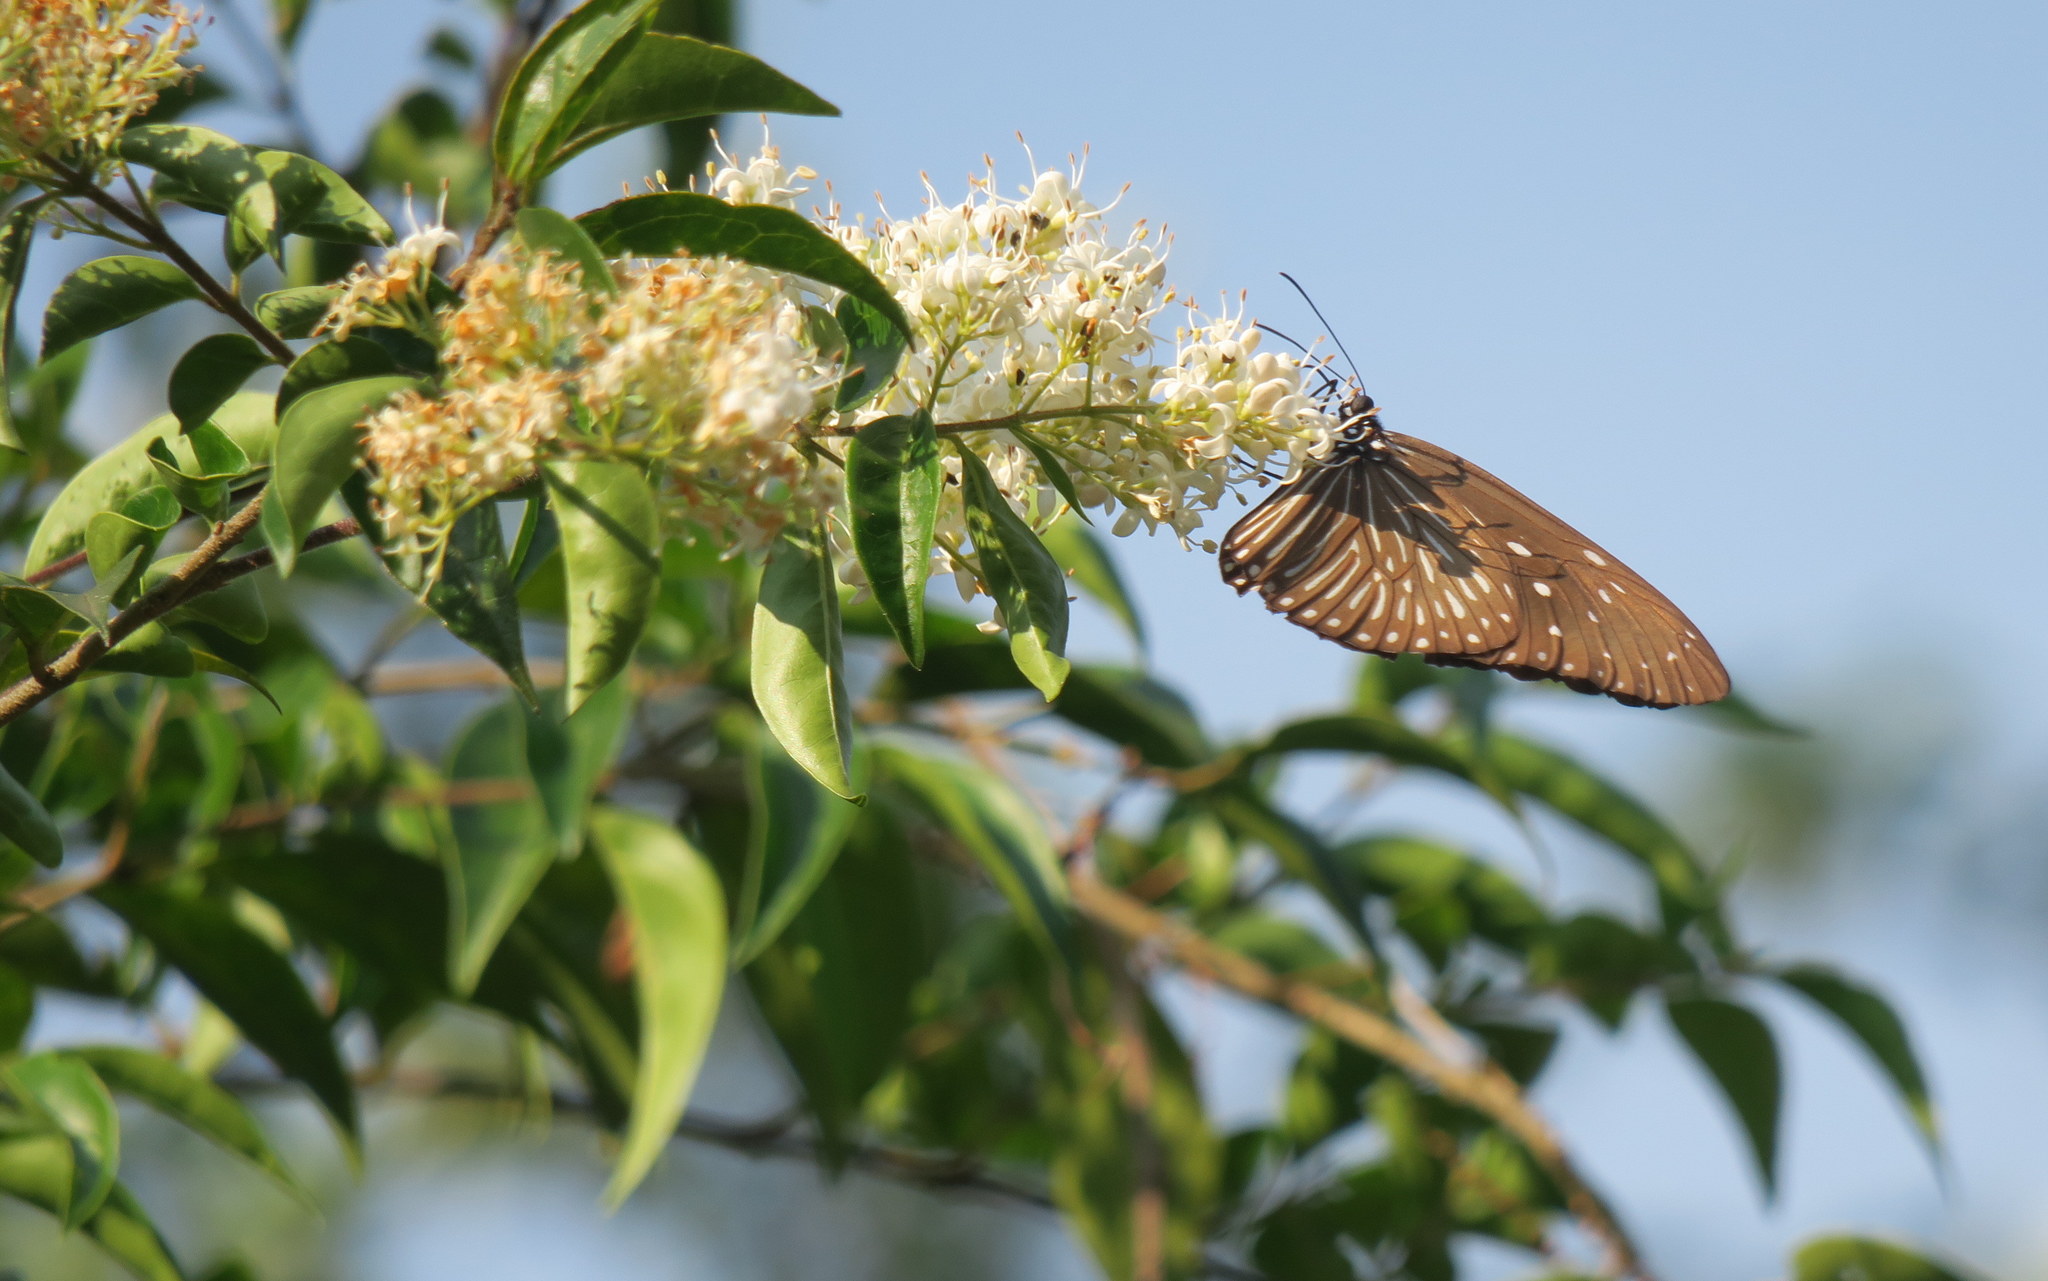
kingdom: Animalia
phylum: Arthropoda
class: Insecta
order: Lepidoptera
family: Nymphalidae
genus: Euploea
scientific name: Euploea mulciber
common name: Striped blue crow butterfly
